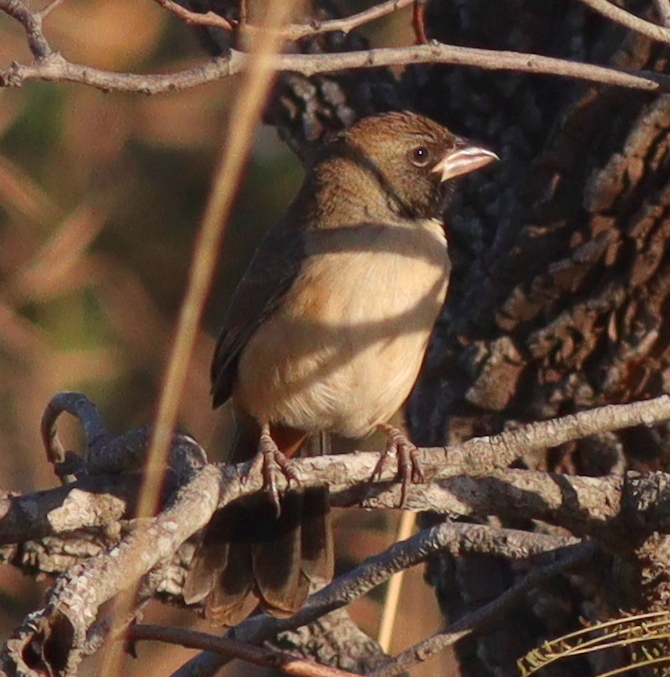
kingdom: Animalia
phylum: Chordata
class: Aves
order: Passeriformes
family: Thraupidae
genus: Saltatricula
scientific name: Saltatricula atricollis
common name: Black-throated saltator
